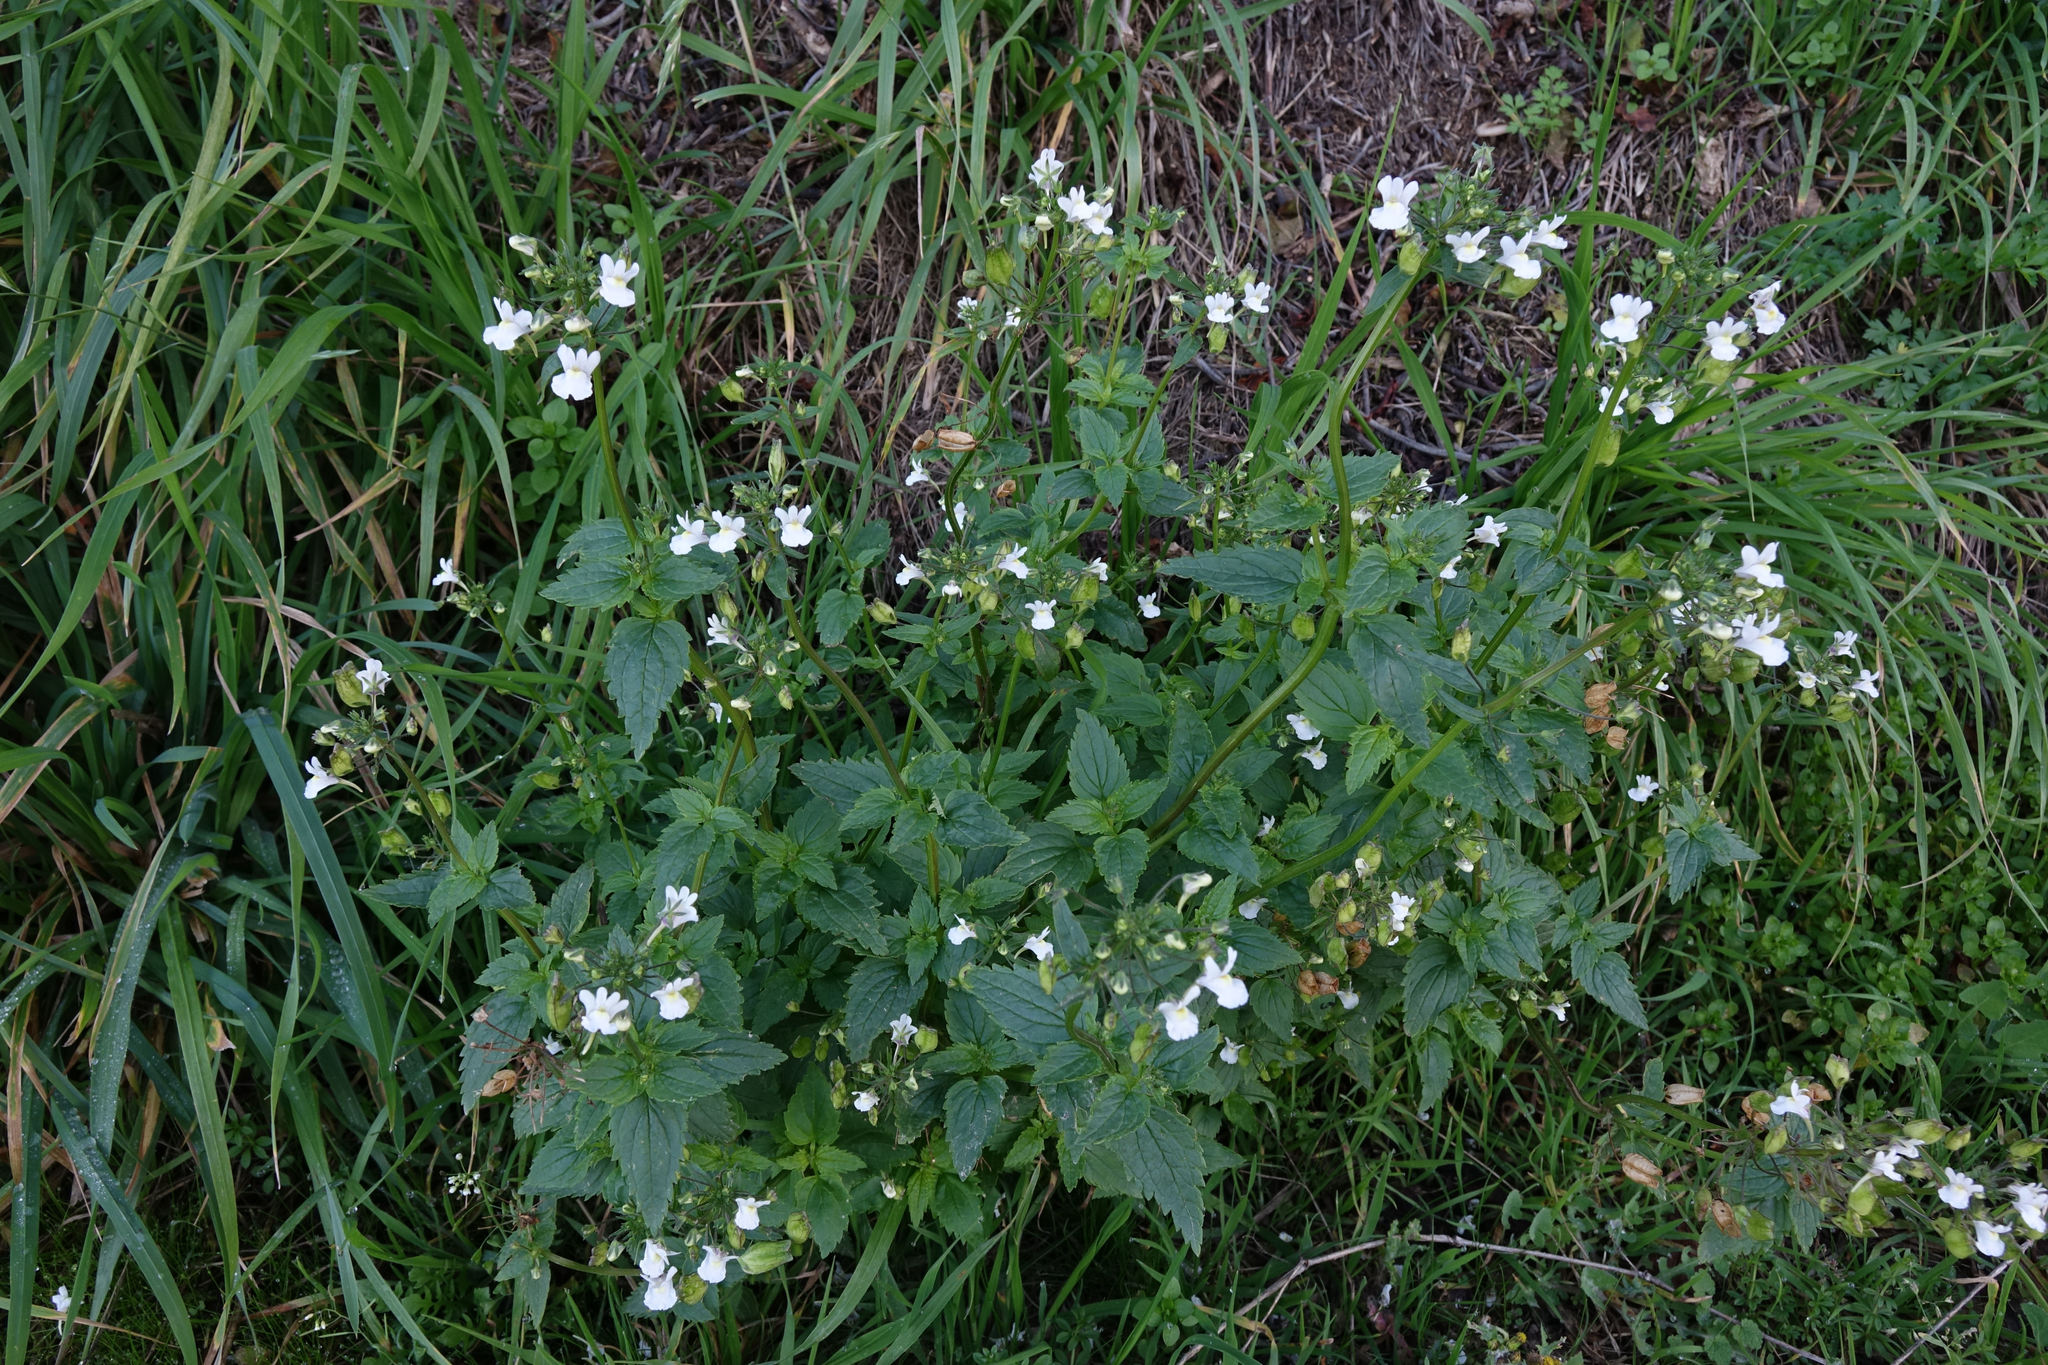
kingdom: Plantae
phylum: Tracheophyta
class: Magnoliopsida
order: Lamiales
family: Scrophulariaceae
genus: Nemesia
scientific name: Nemesia floribunda
